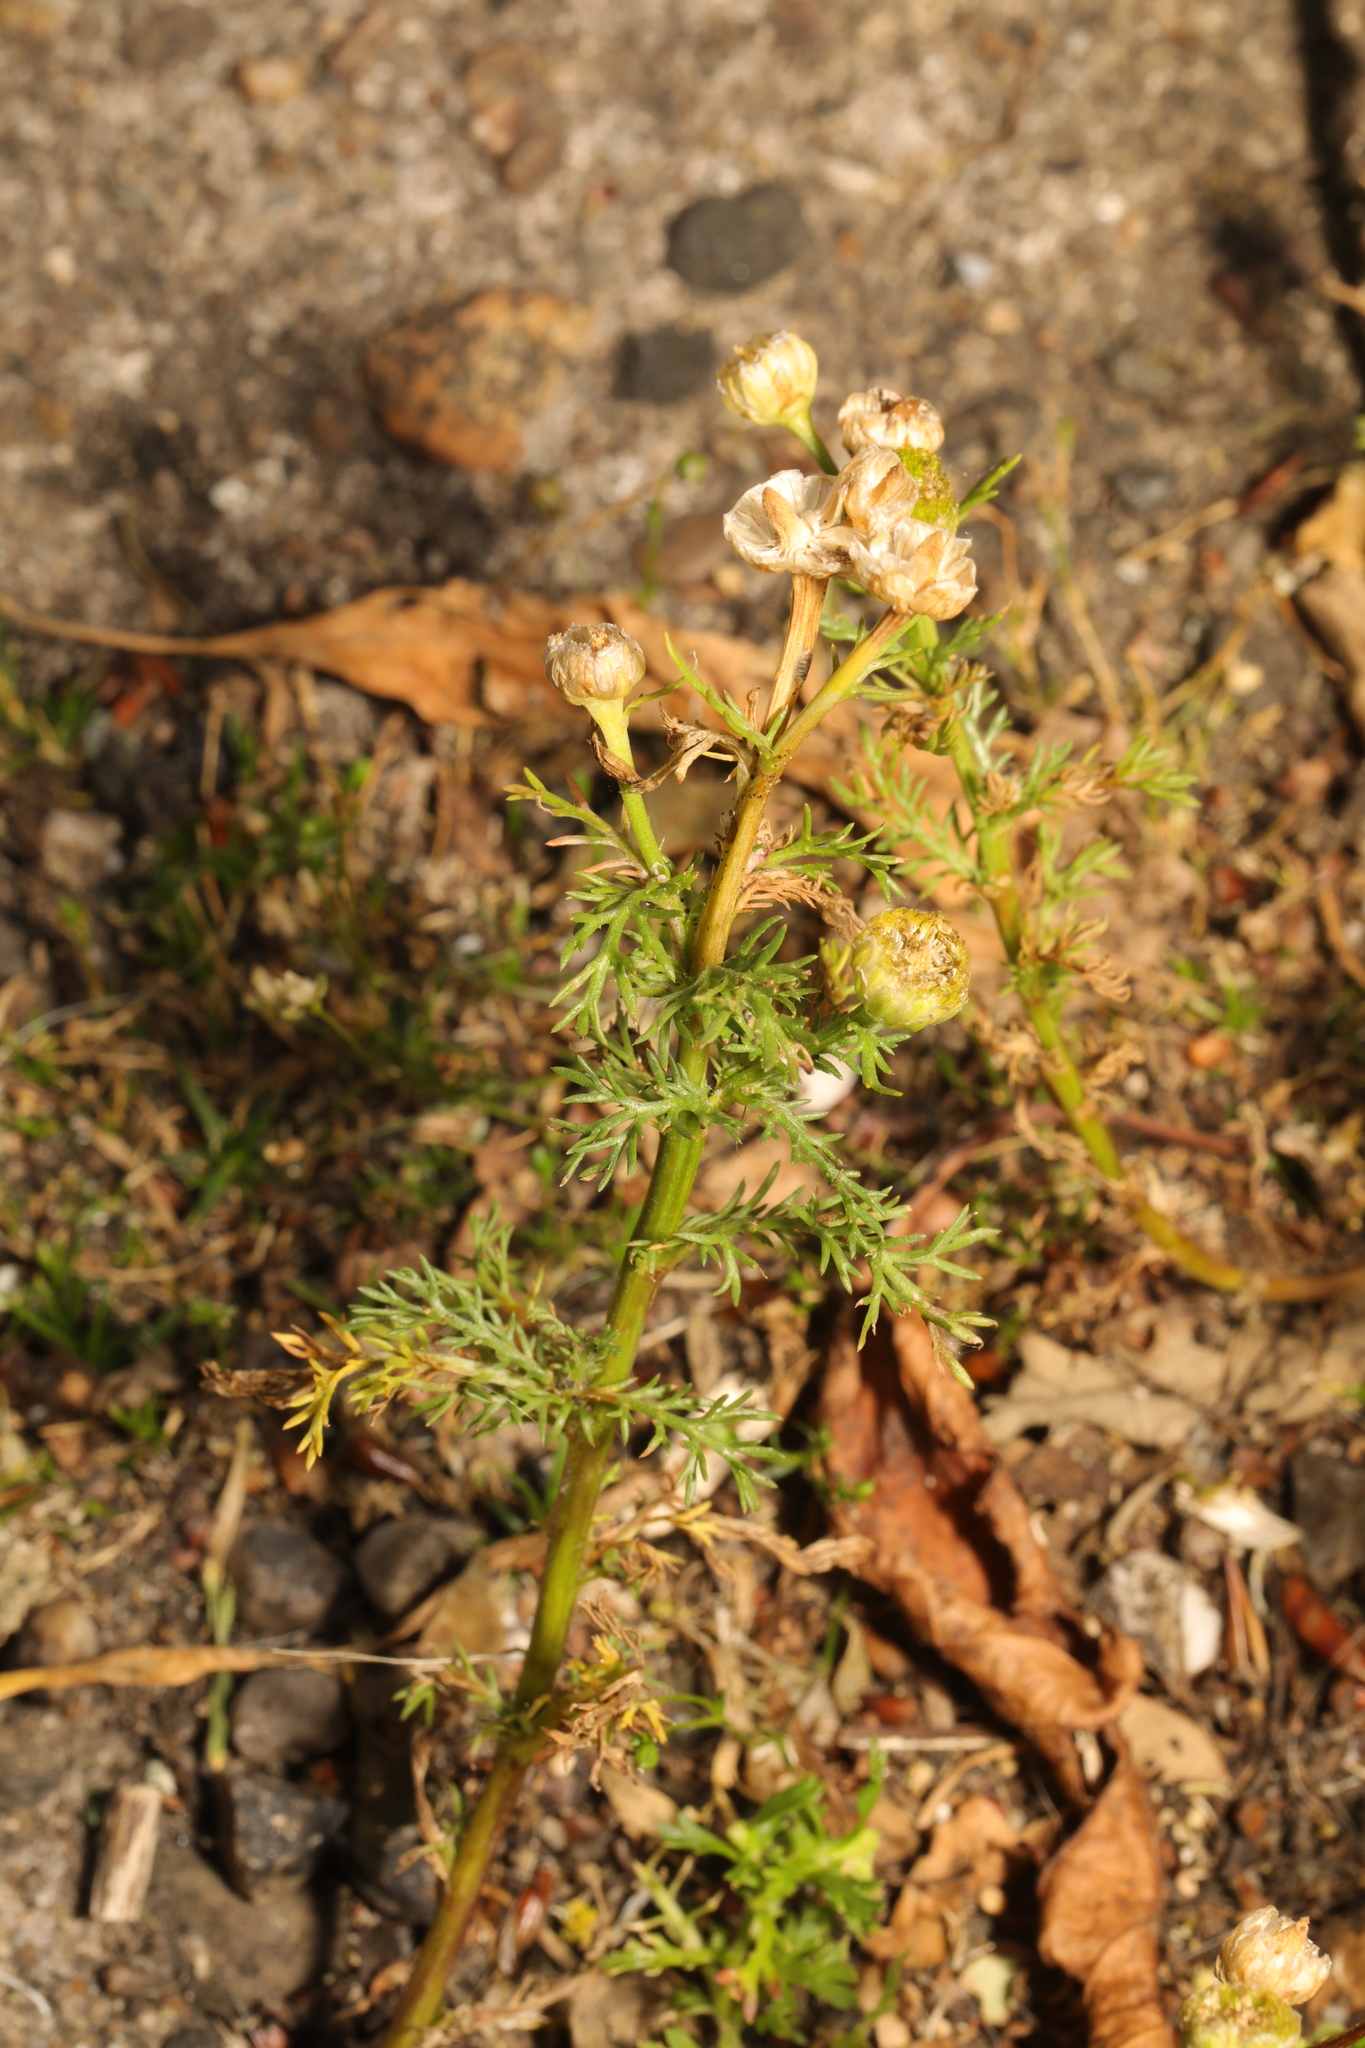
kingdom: Plantae
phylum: Tracheophyta
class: Magnoliopsida
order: Asterales
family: Asteraceae
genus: Matricaria
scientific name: Matricaria discoidea
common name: Disc mayweed
